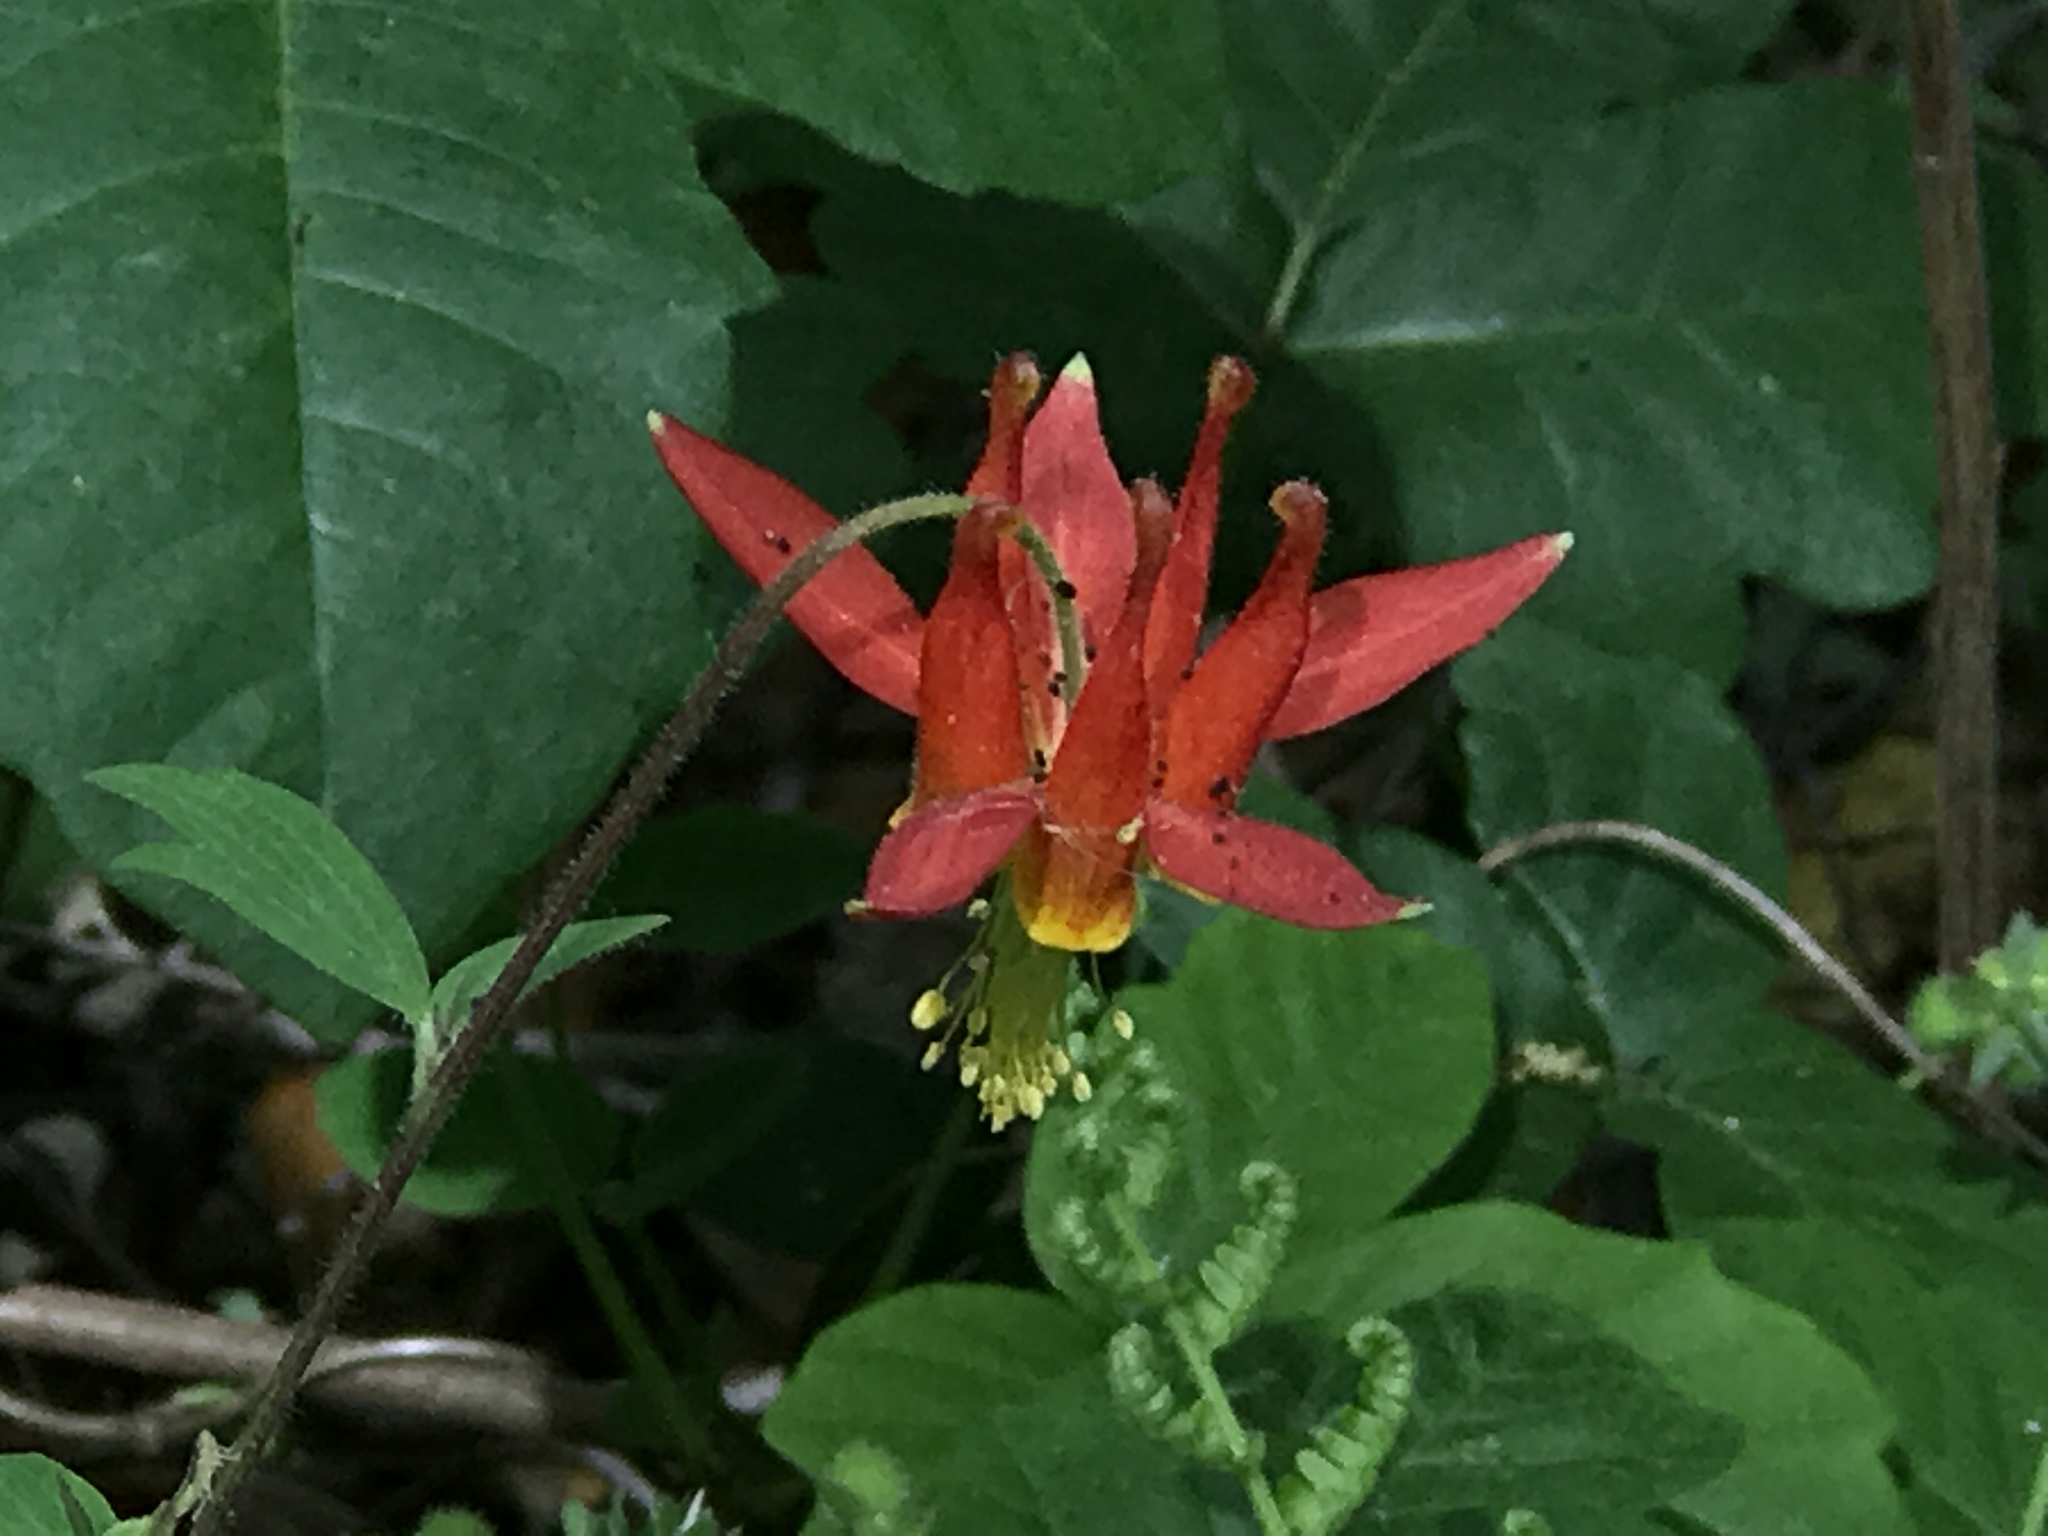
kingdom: Plantae
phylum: Tracheophyta
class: Magnoliopsida
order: Ranunculales
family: Ranunculaceae
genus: Aquilegia
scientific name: Aquilegia formosa
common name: Sitka columbine
